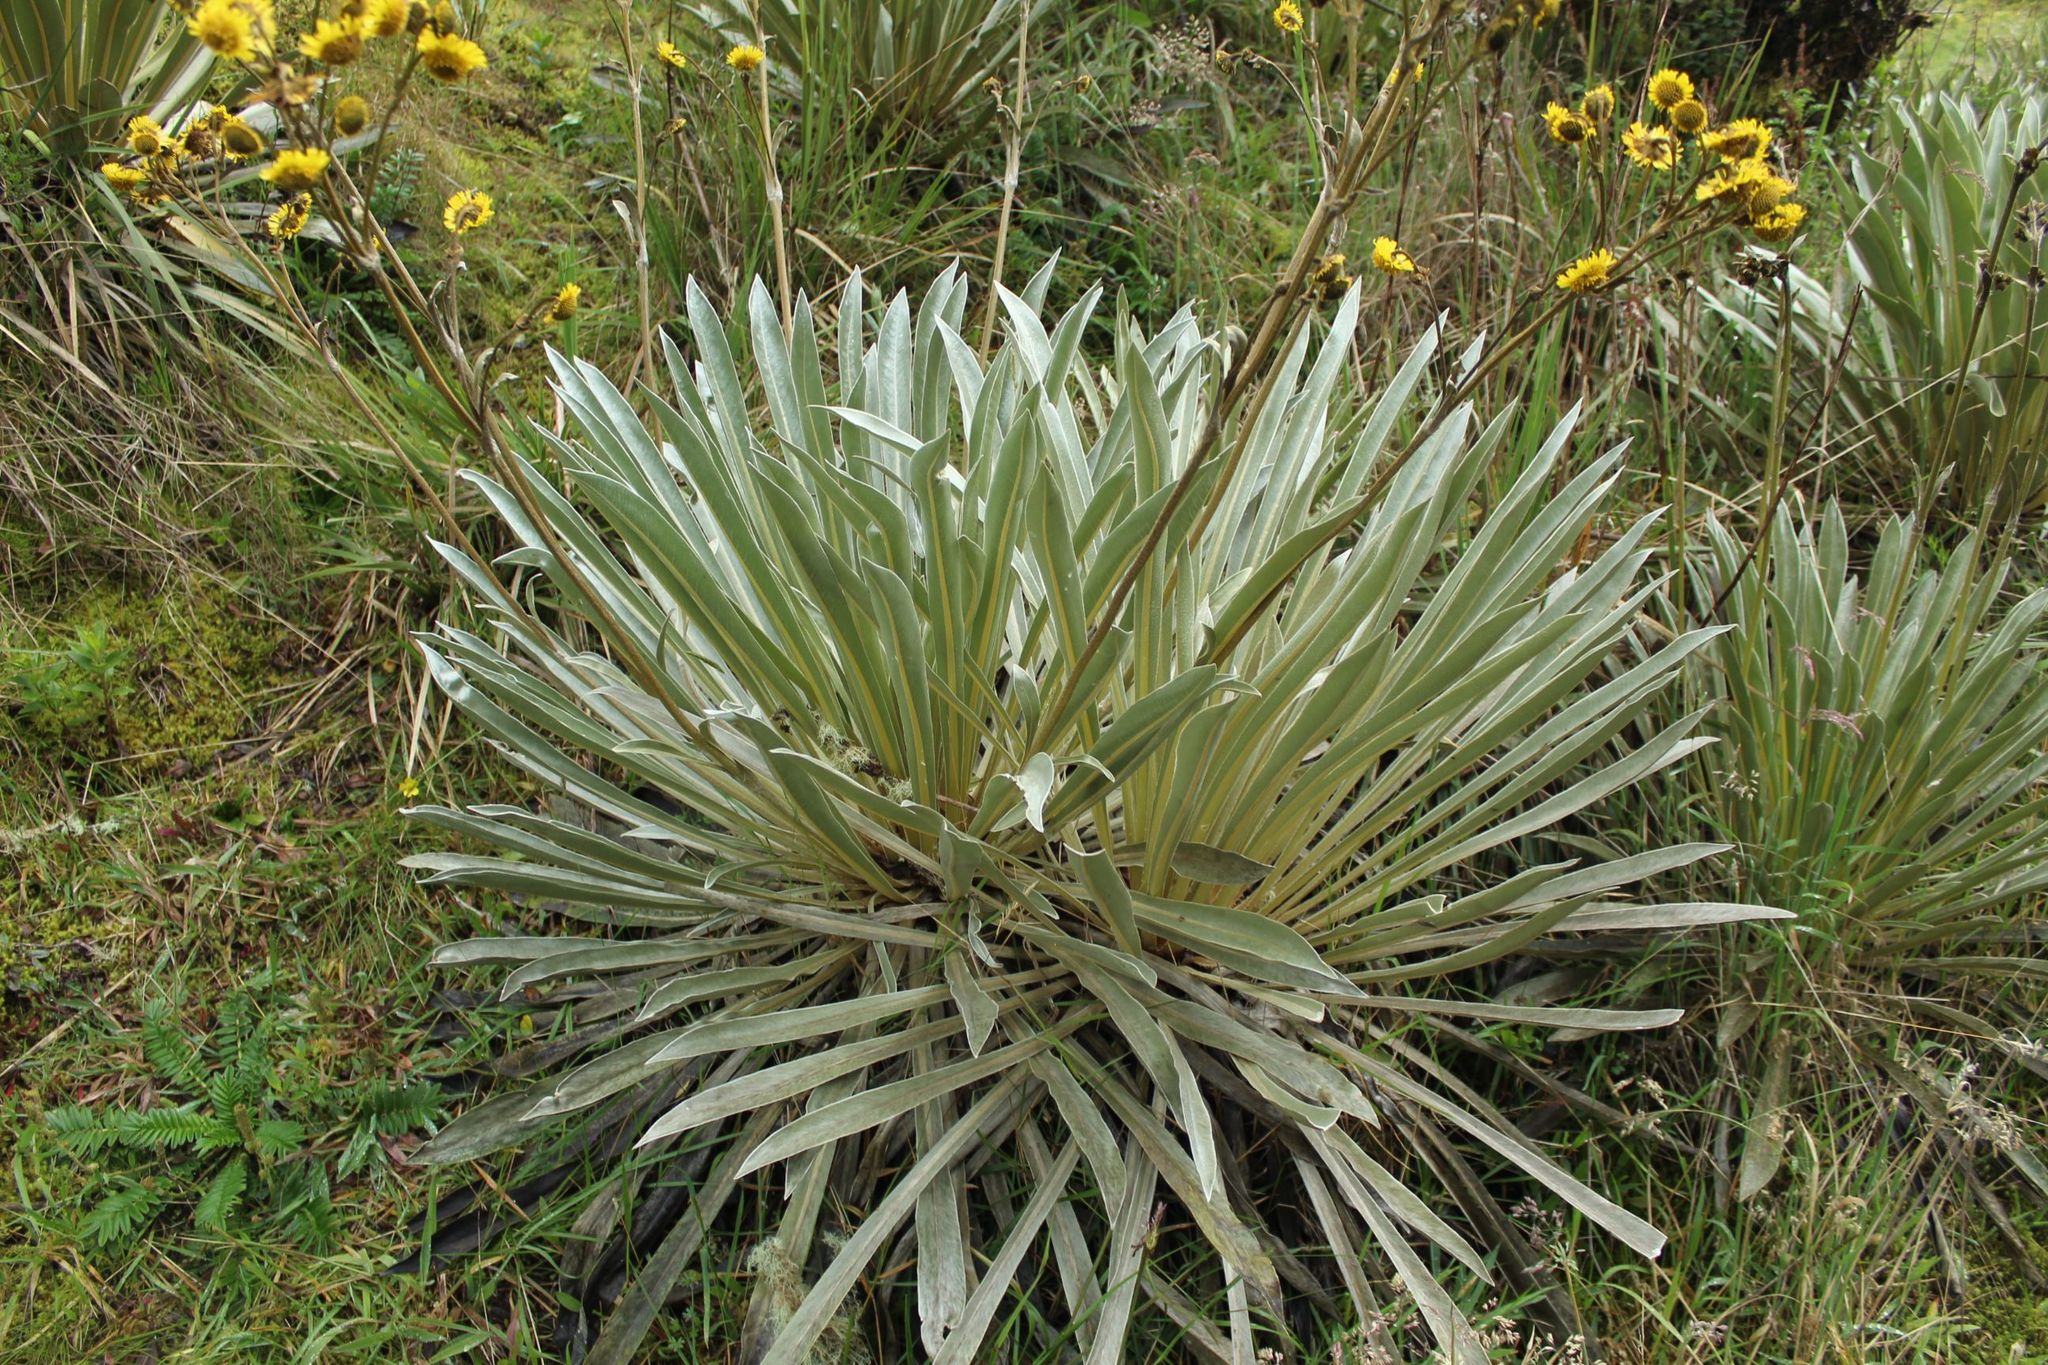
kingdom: Plantae
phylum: Tracheophyta
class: Magnoliopsida
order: Asterales
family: Asteraceae
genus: Espeletia
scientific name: Espeletia boyacensis
